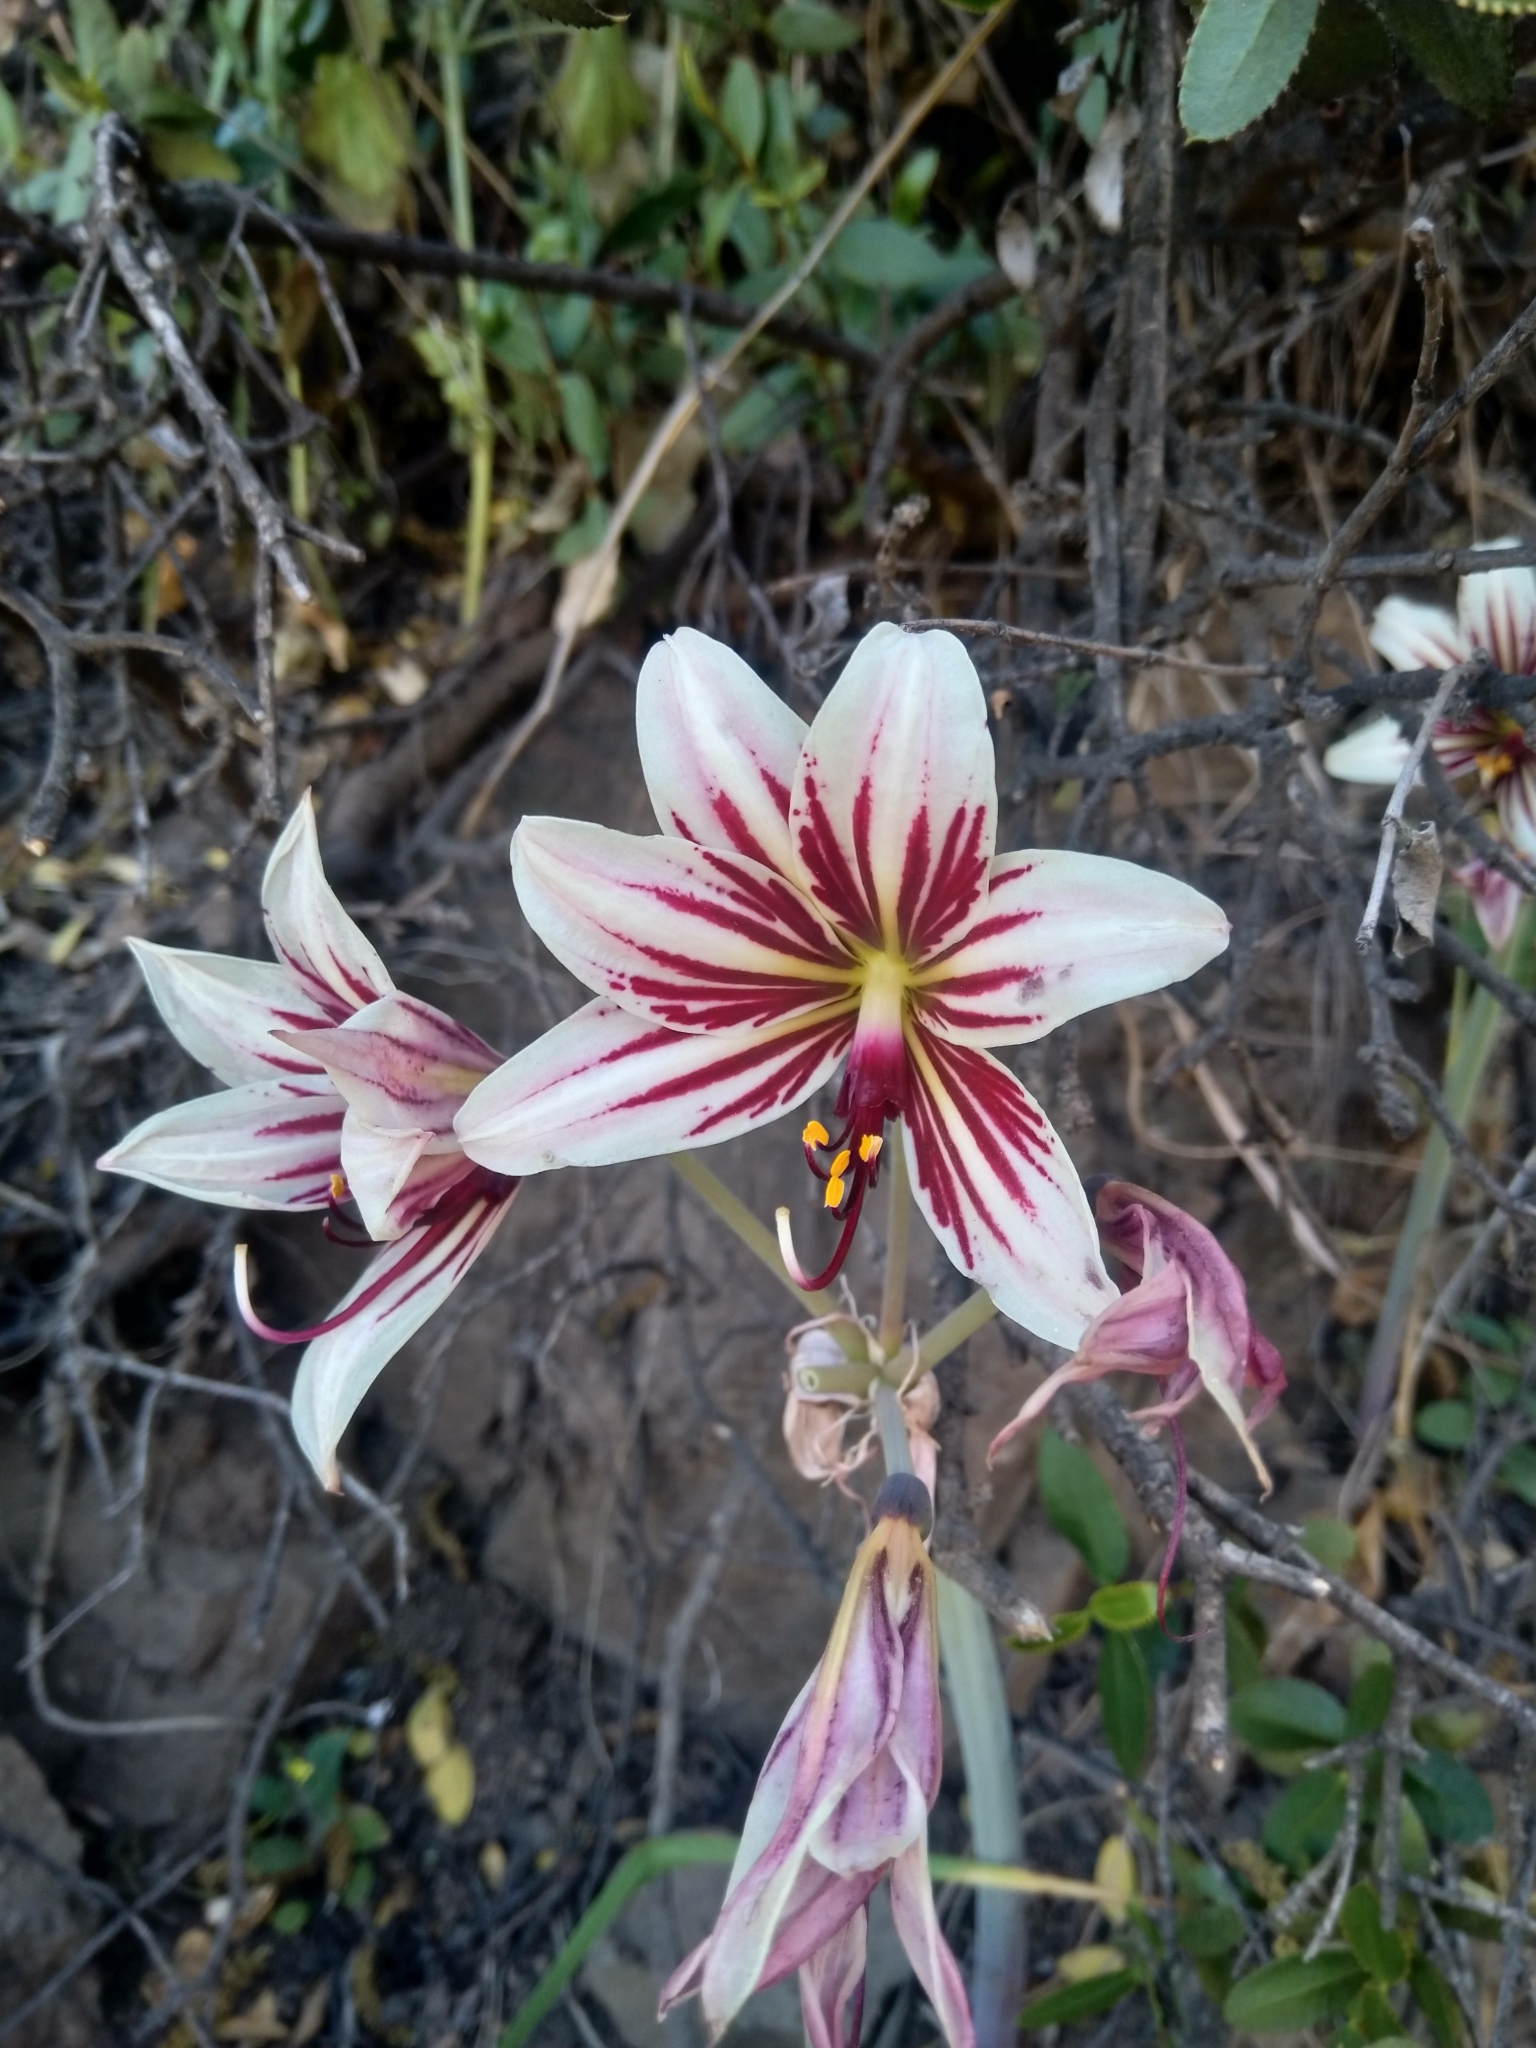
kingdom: Plantae
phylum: Tracheophyta
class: Liliopsida
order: Asparagales
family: Amaryllidaceae
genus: Phycella
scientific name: Phycella arzae
